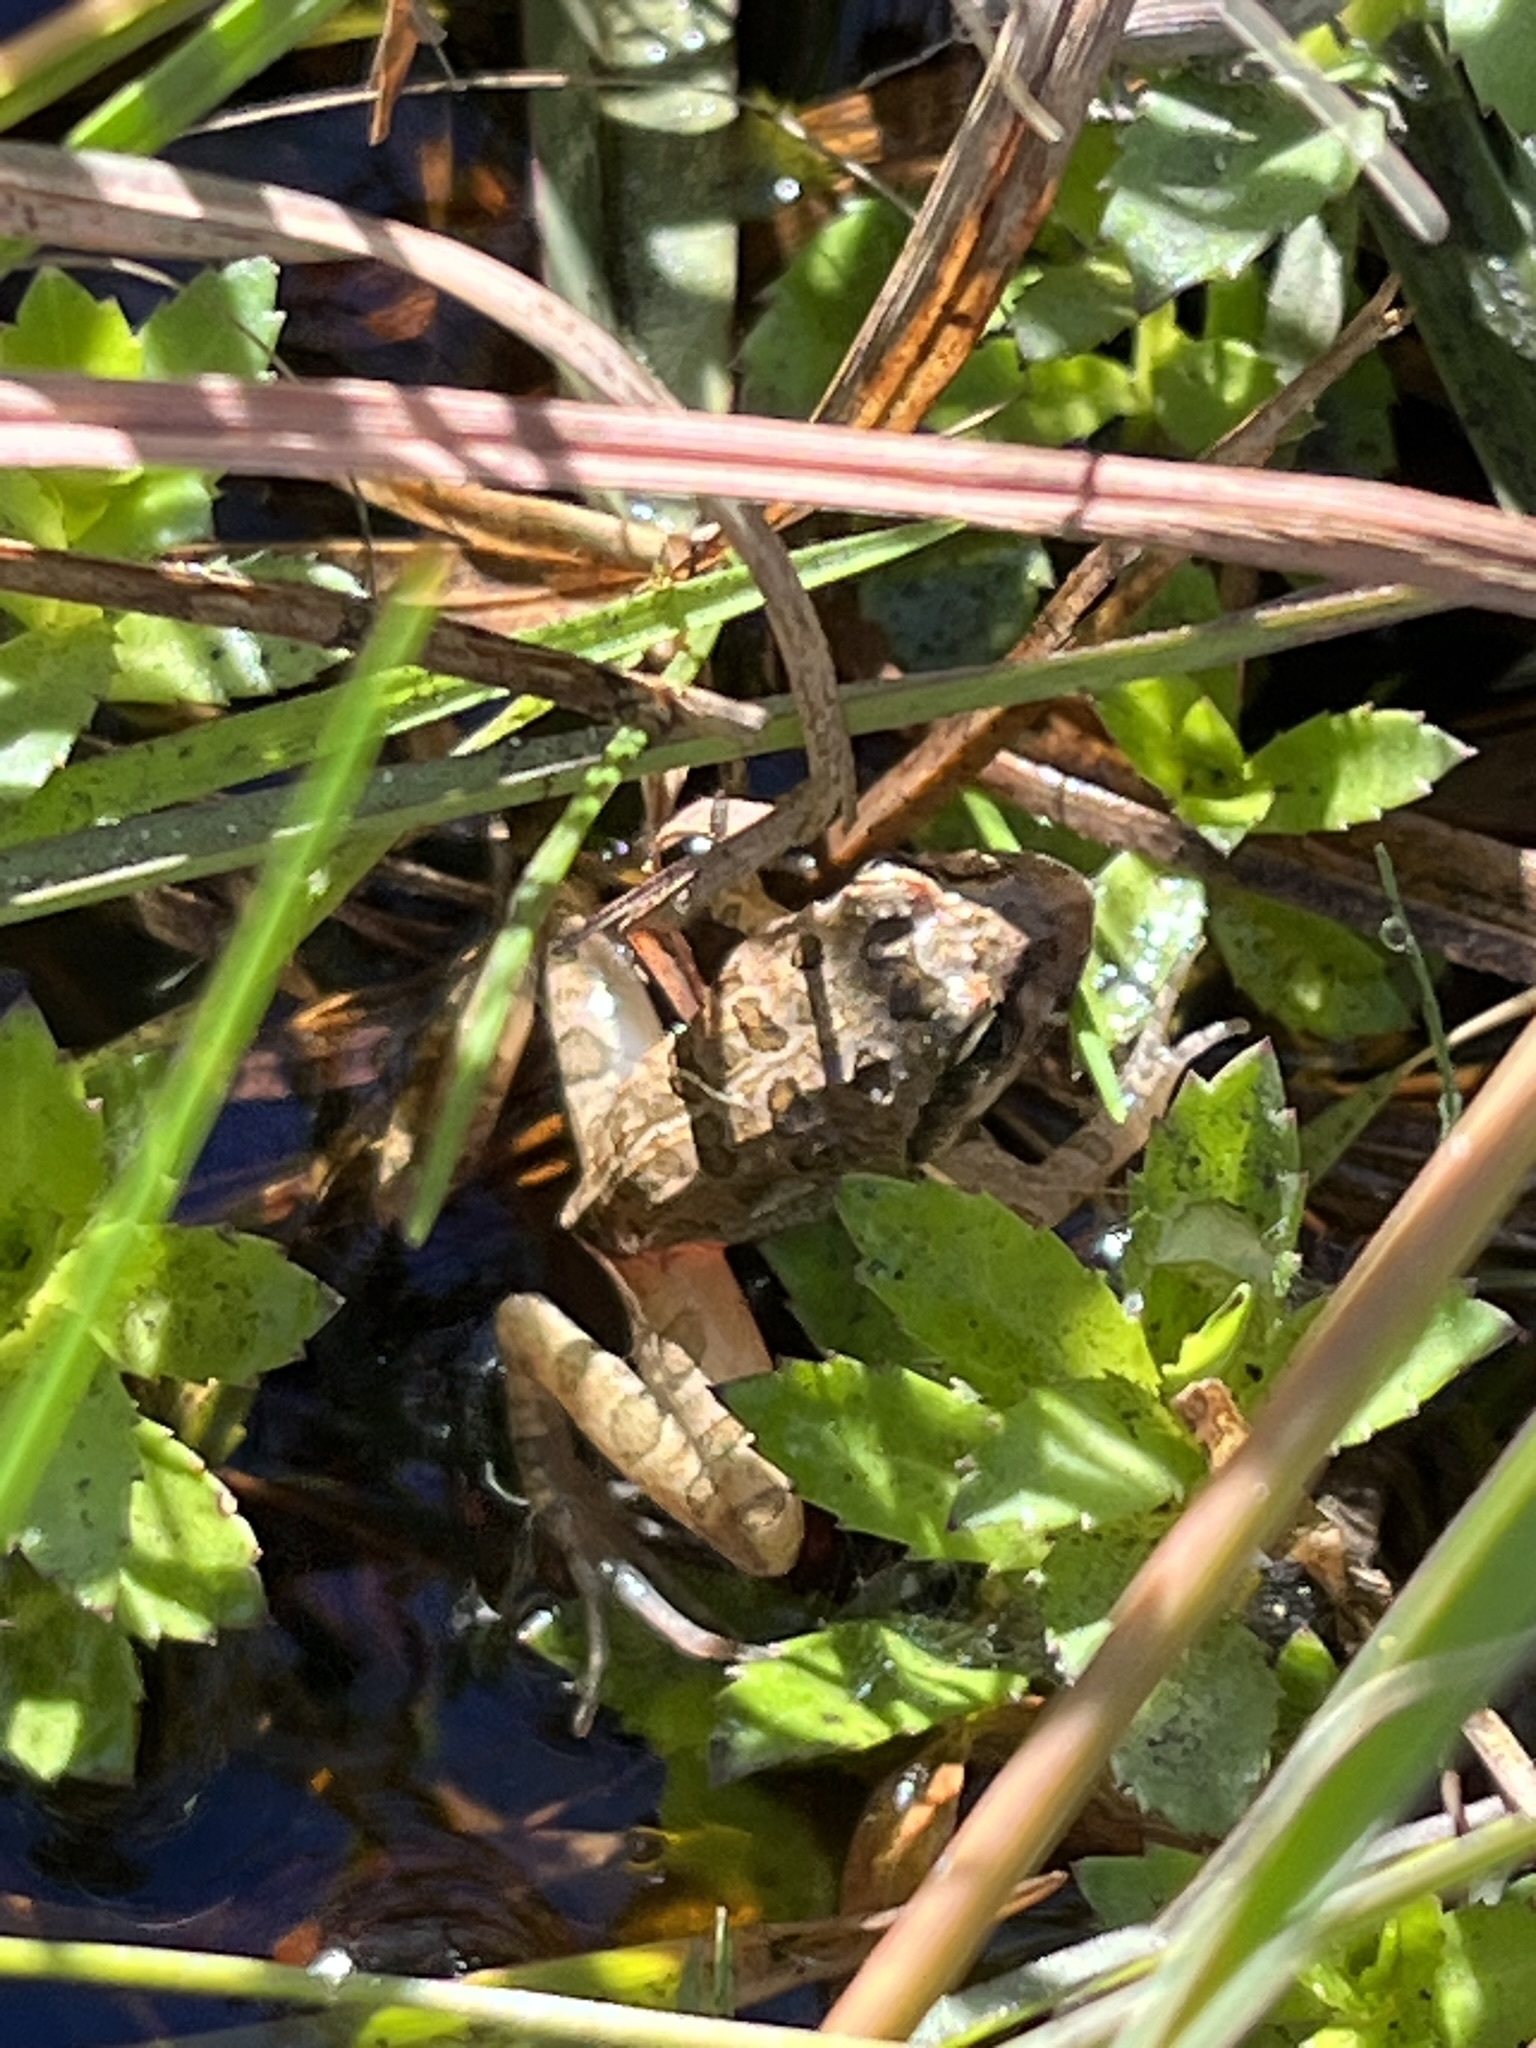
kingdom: Animalia
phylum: Chordata
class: Amphibia
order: Anura
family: Pyxicephalidae
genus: Strongylopus
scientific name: Strongylopus grayii
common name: Gray's stream frog
